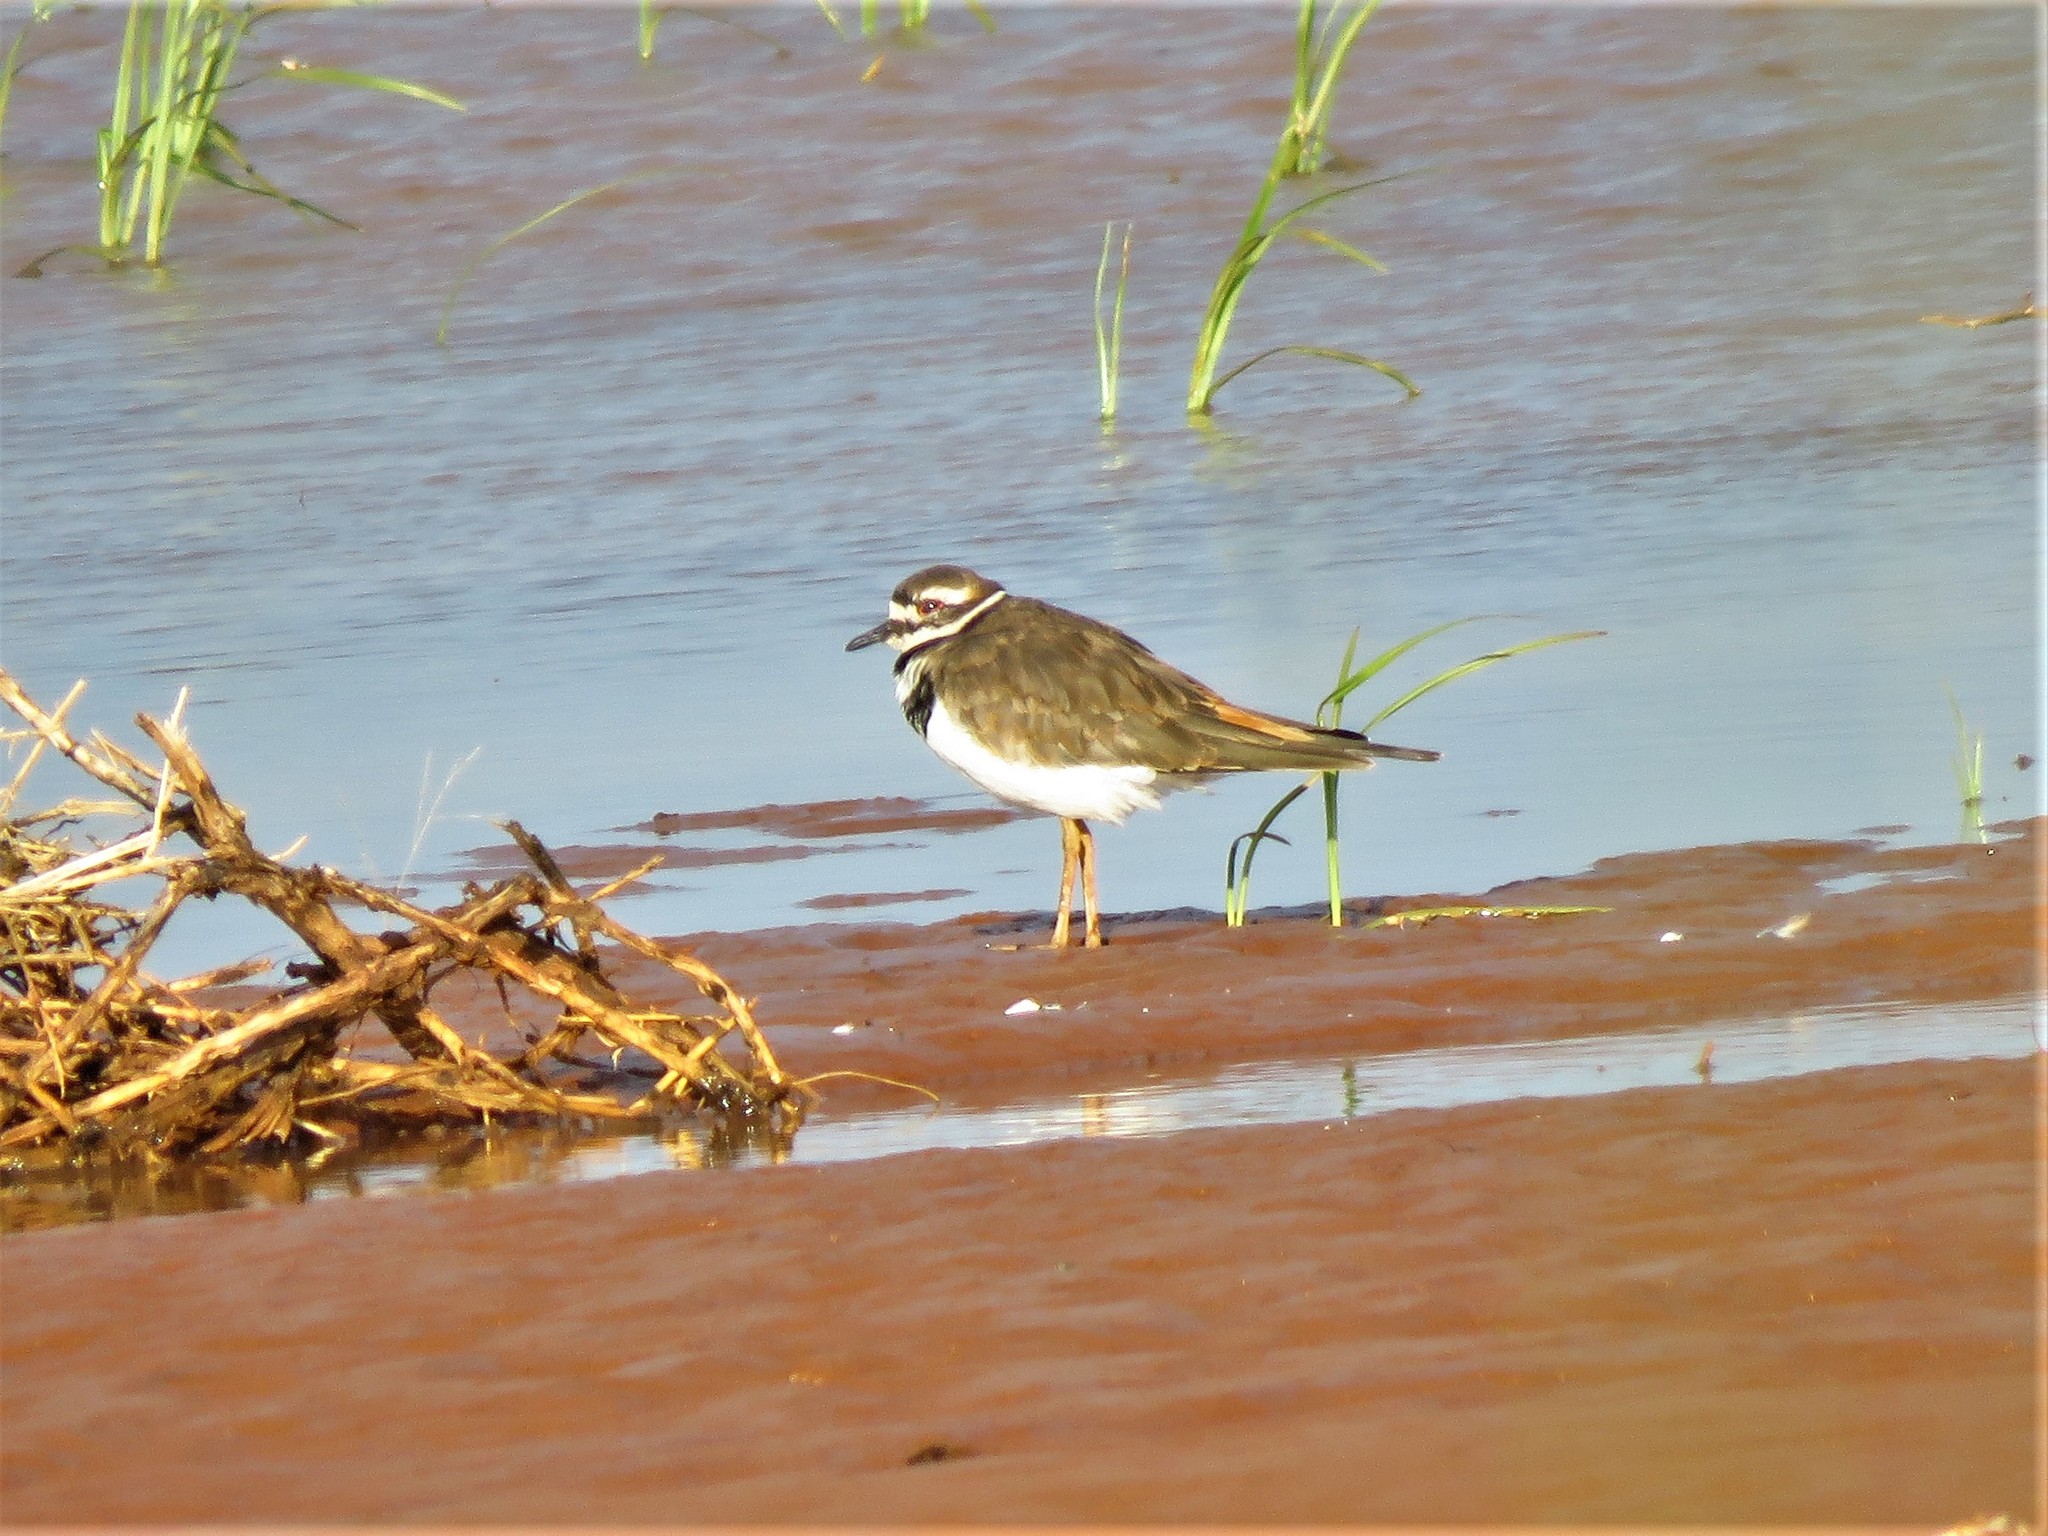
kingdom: Animalia
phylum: Chordata
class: Aves
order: Charadriiformes
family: Charadriidae
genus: Charadrius
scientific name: Charadrius vociferus
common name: Killdeer
